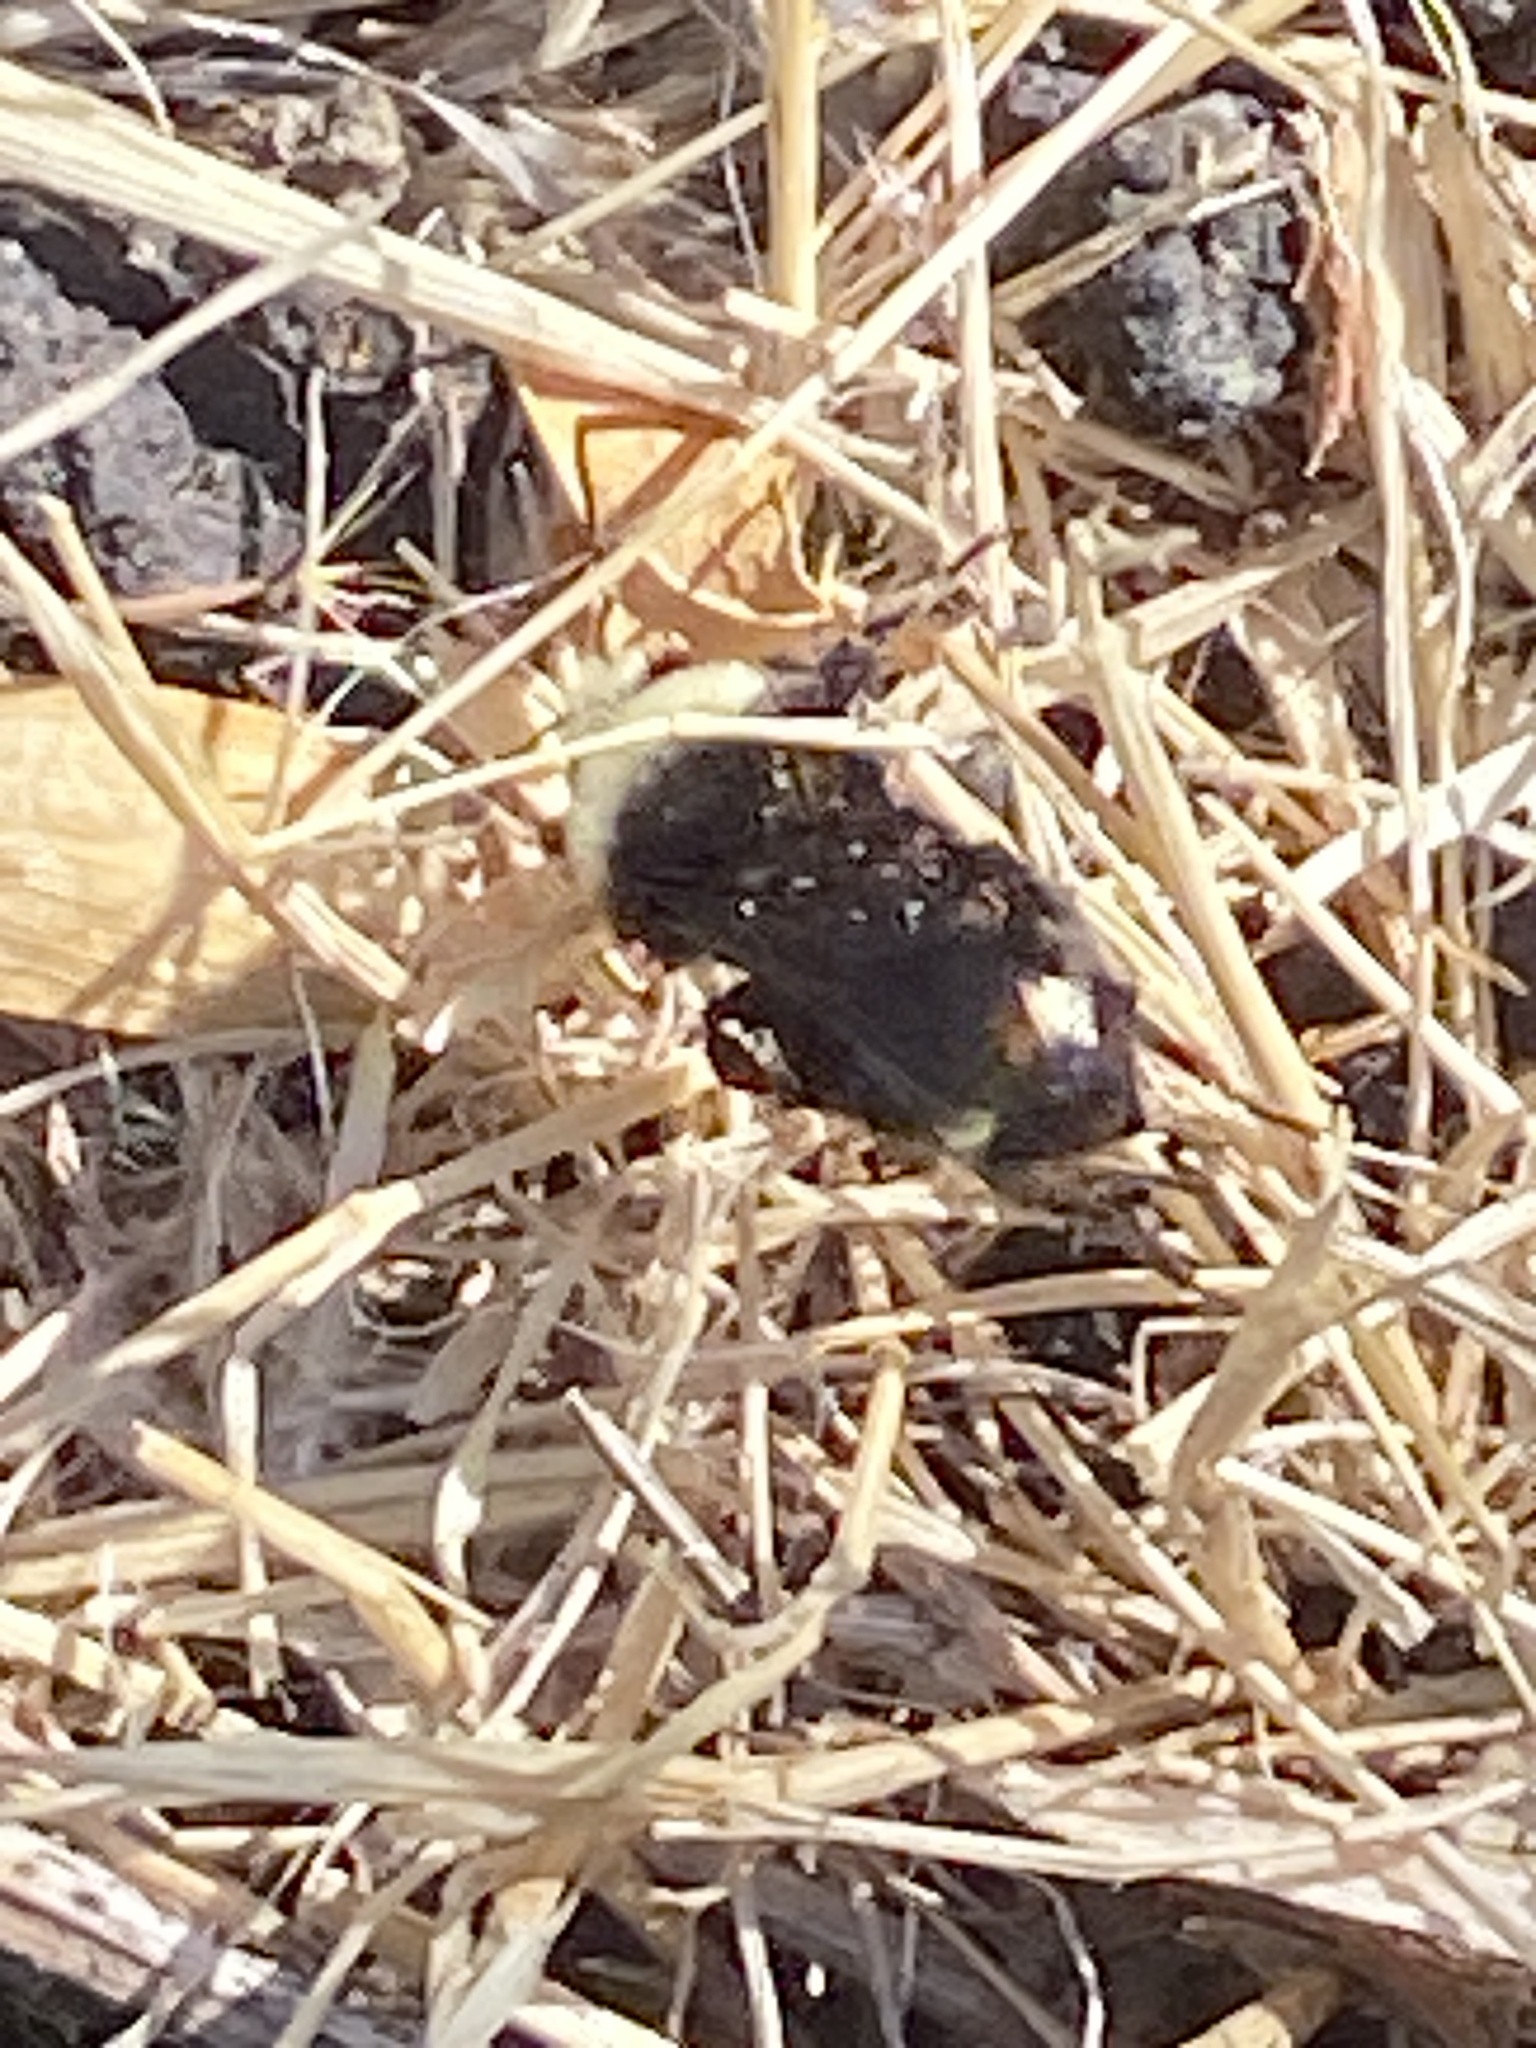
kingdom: Animalia
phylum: Arthropoda
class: Insecta
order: Hymenoptera
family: Apidae
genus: Bombus
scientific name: Bombus vosnesenskii
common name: Vosnesensky bumble bee
